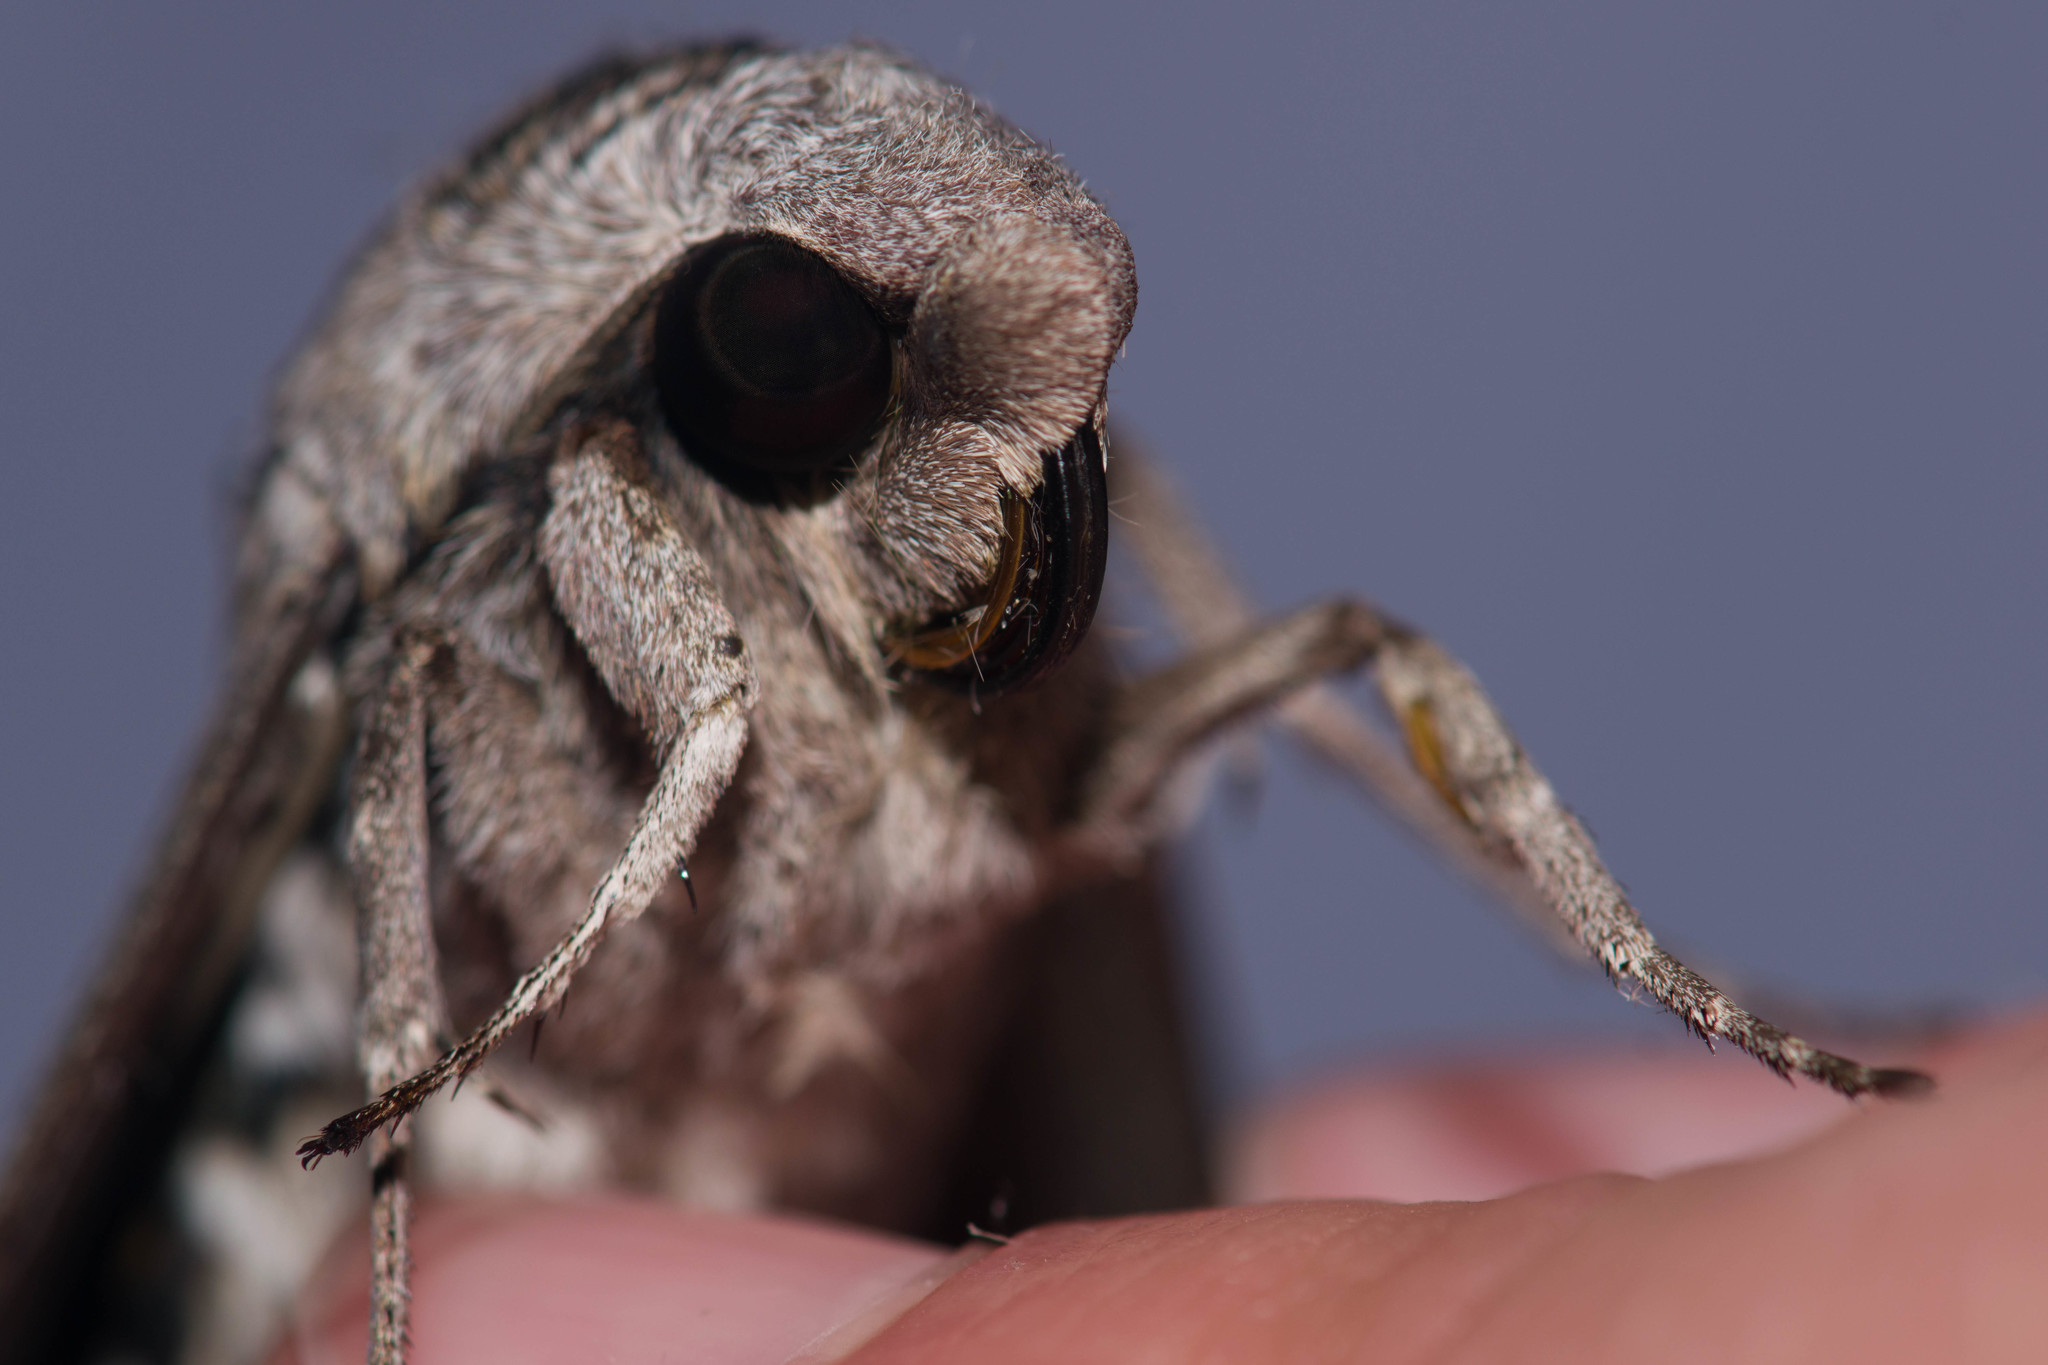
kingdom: Animalia
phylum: Arthropoda
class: Insecta
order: Lepidoptera
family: Sphingidae
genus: Manduca
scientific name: Manduca quinquemaculatus
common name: Five-spotted hawk-moth
